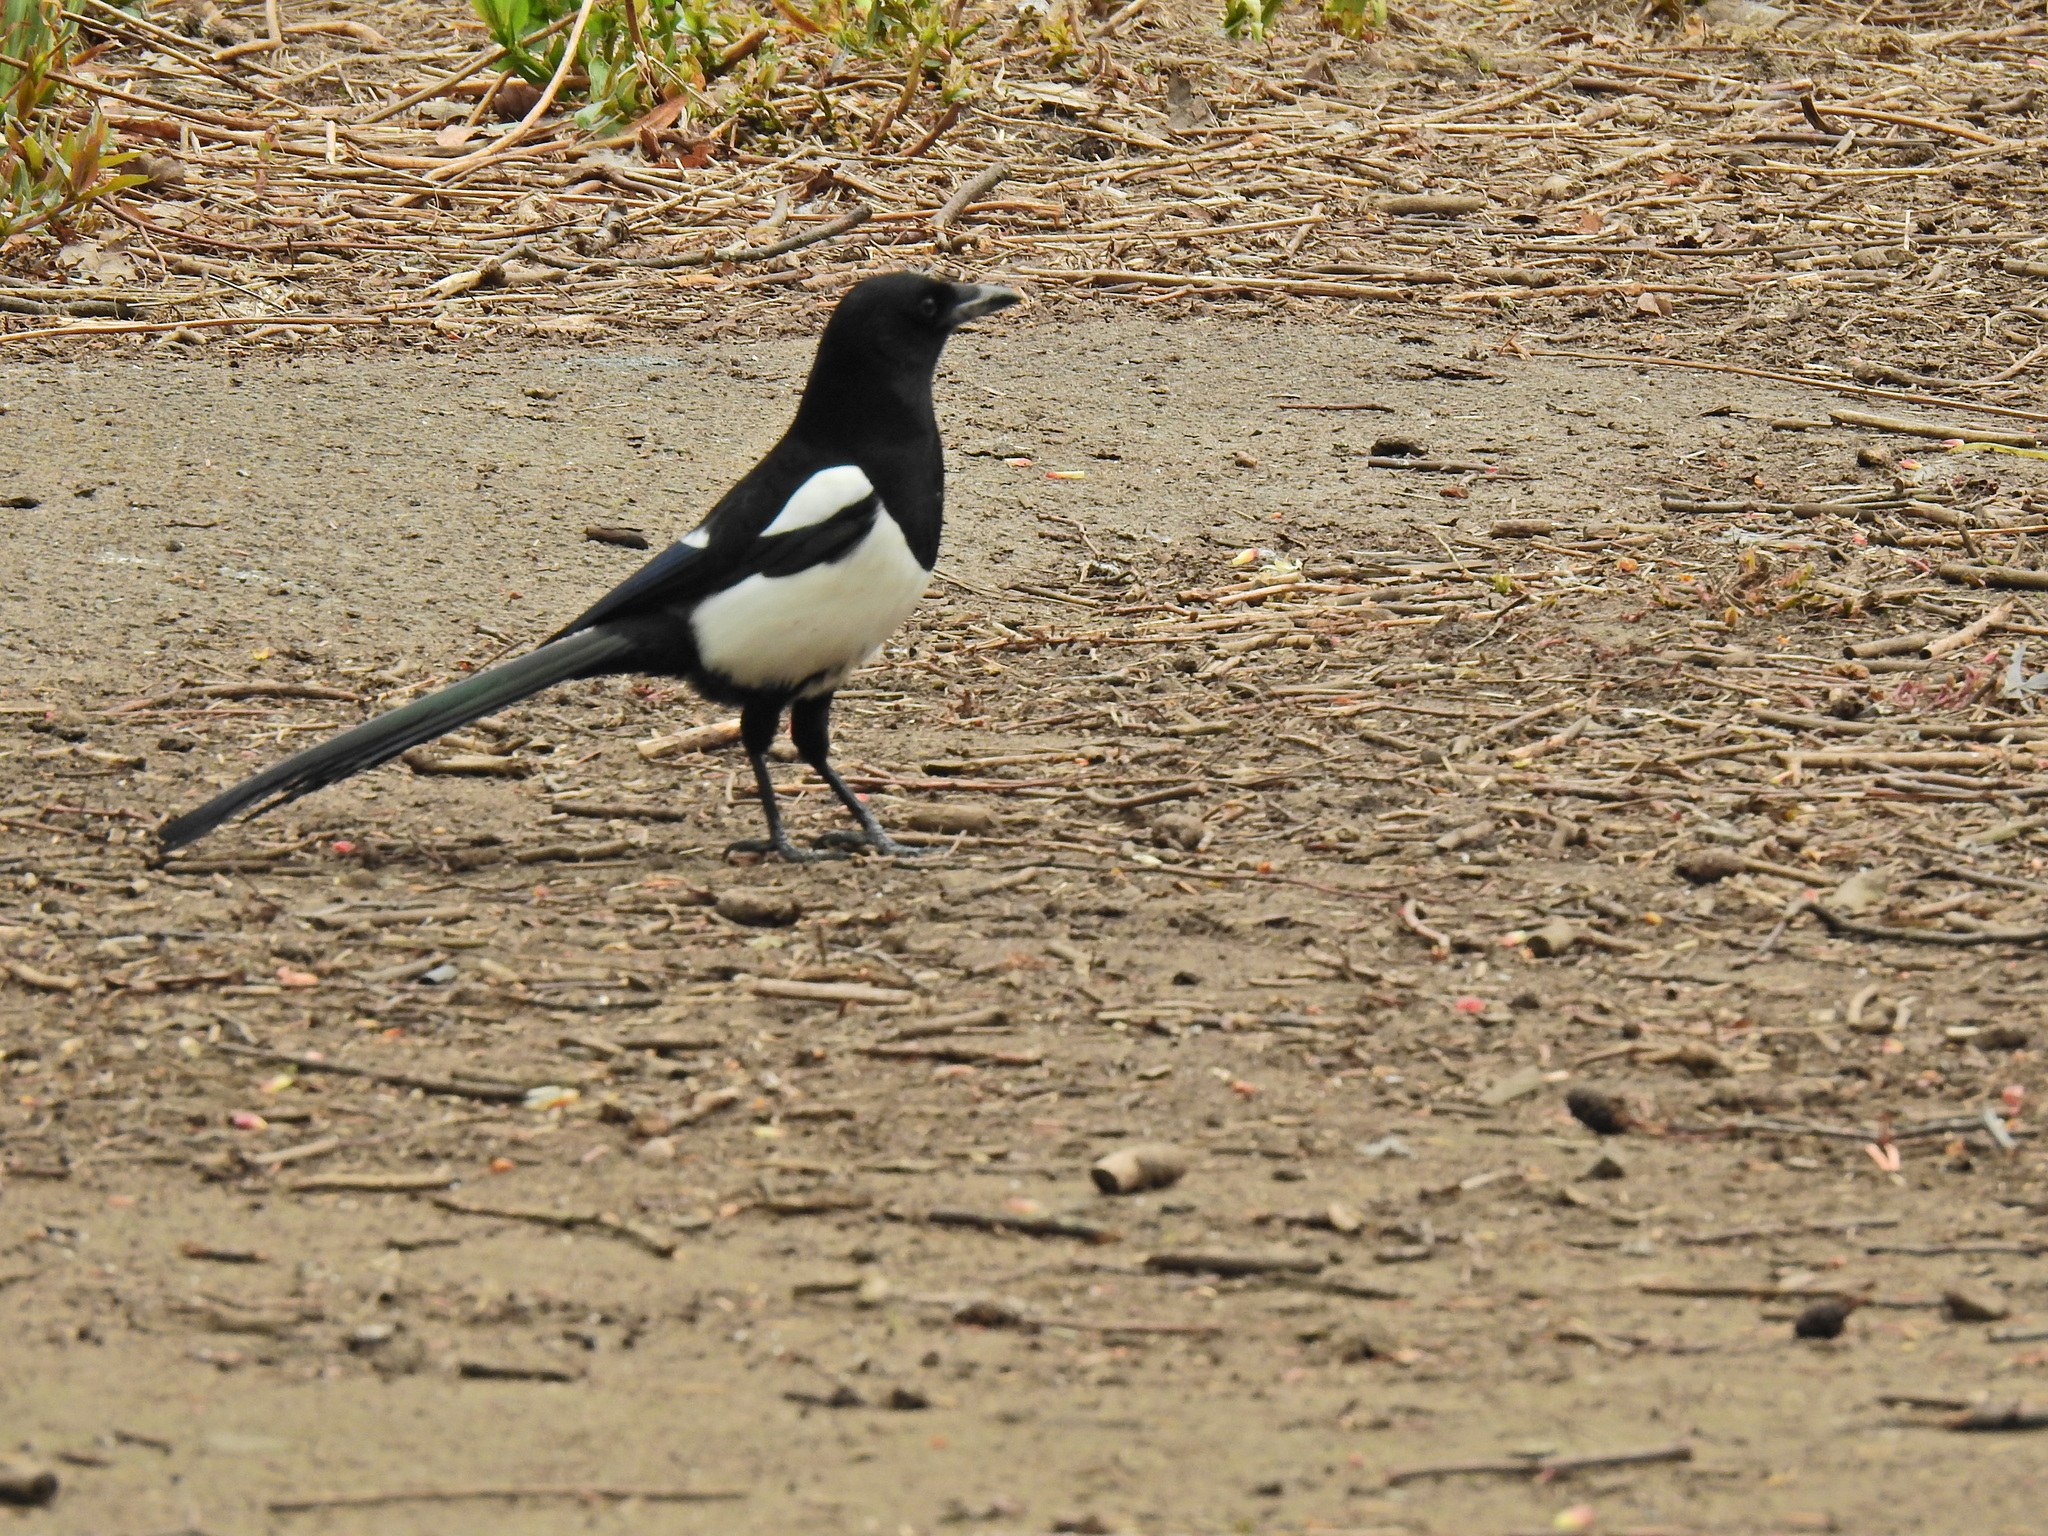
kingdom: Animalia
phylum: Chordata
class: Aves
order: Passeriformes
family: Corvidae
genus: Pica
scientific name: Pica pica
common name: Eurasian magpie
